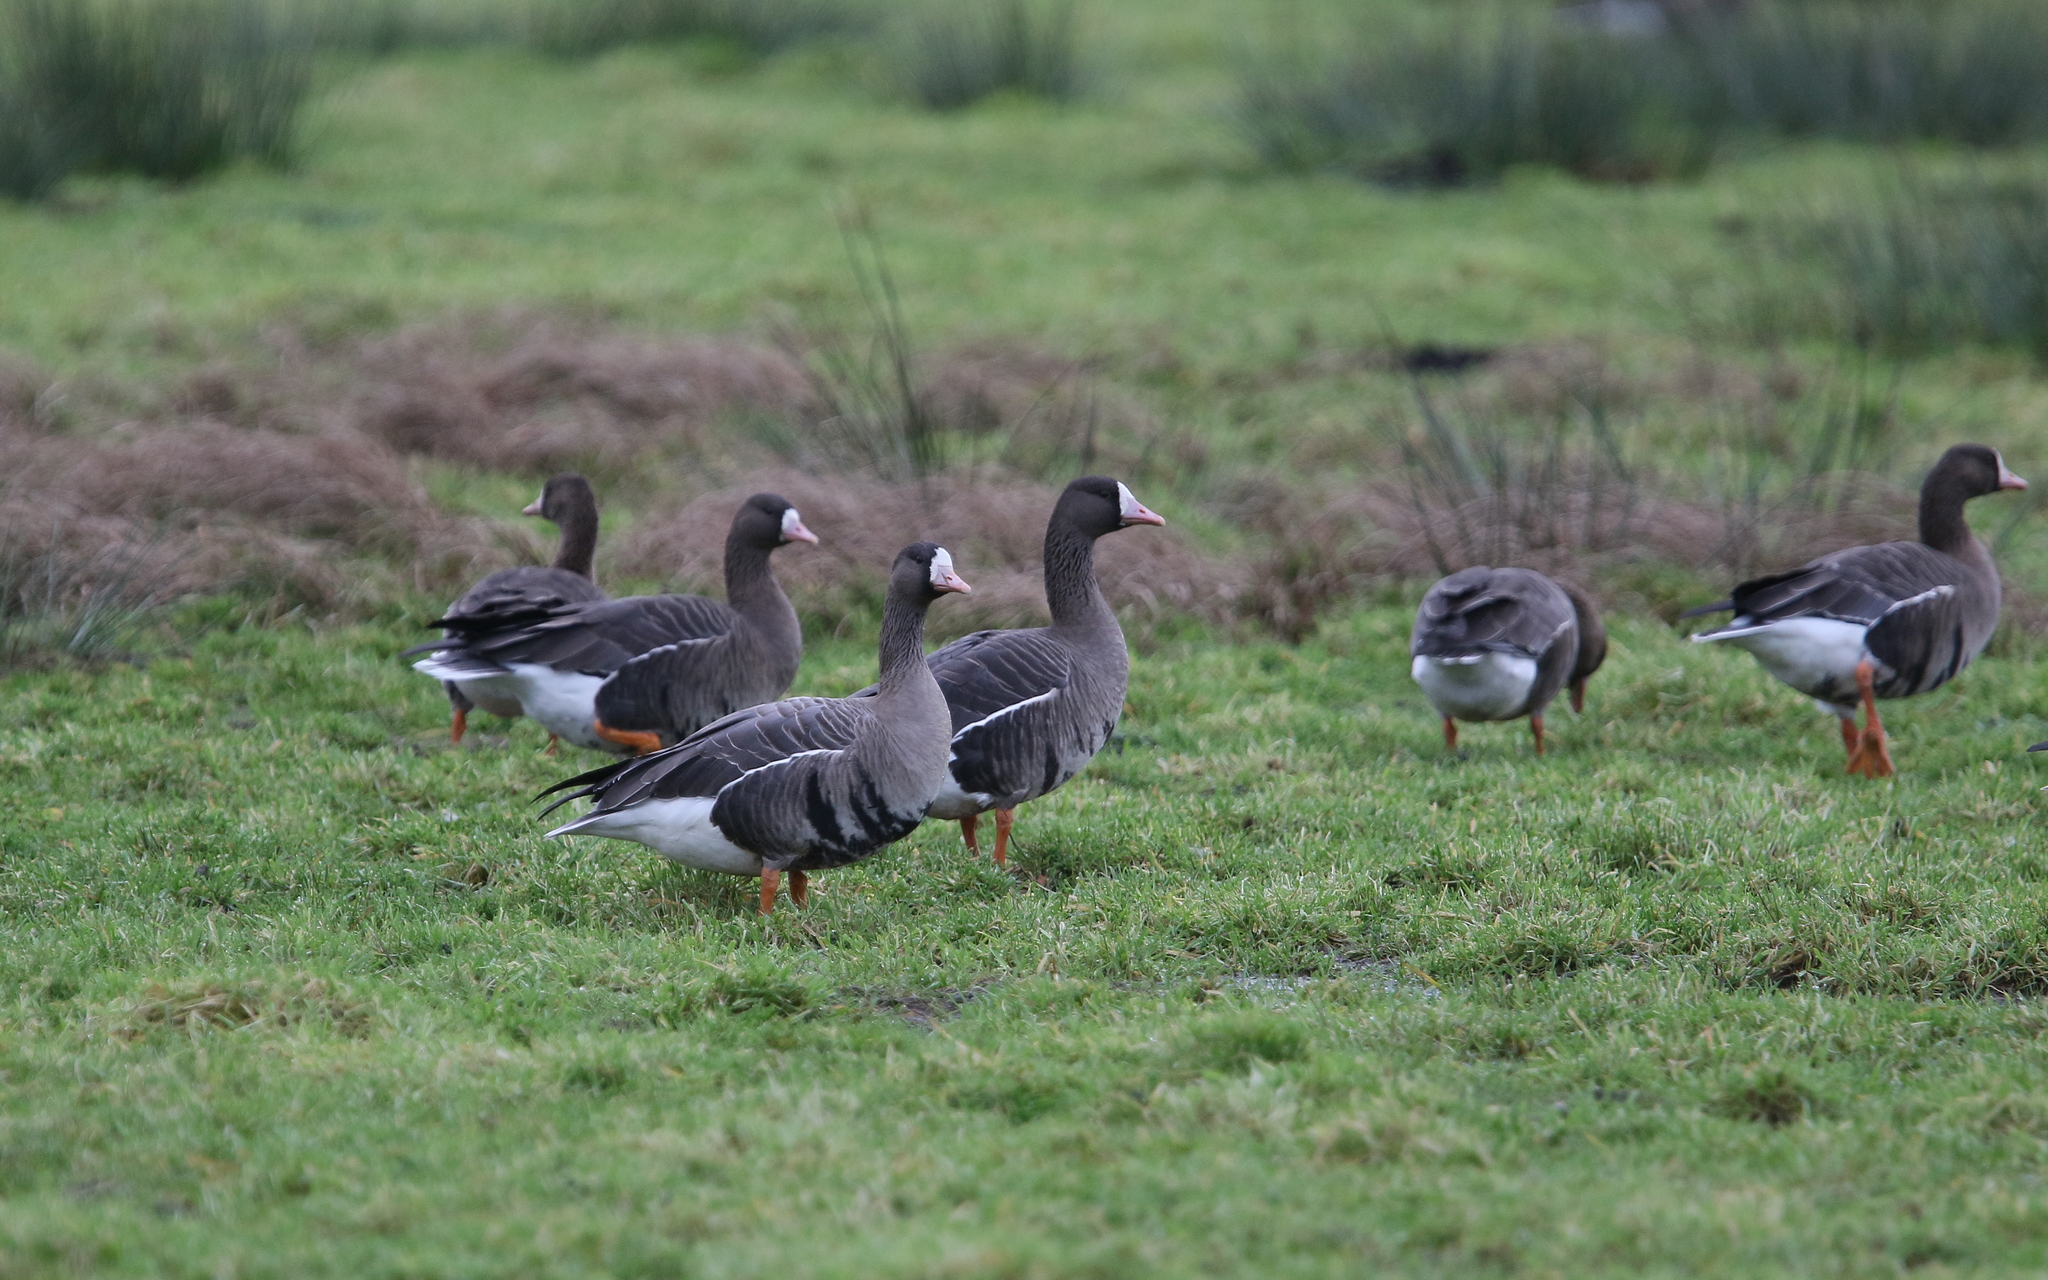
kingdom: Animalia
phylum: Chordata
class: Aves
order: Anseriformes
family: Anatidae
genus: Anser
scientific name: Anser albifrons
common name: Greater white-fronted goose
